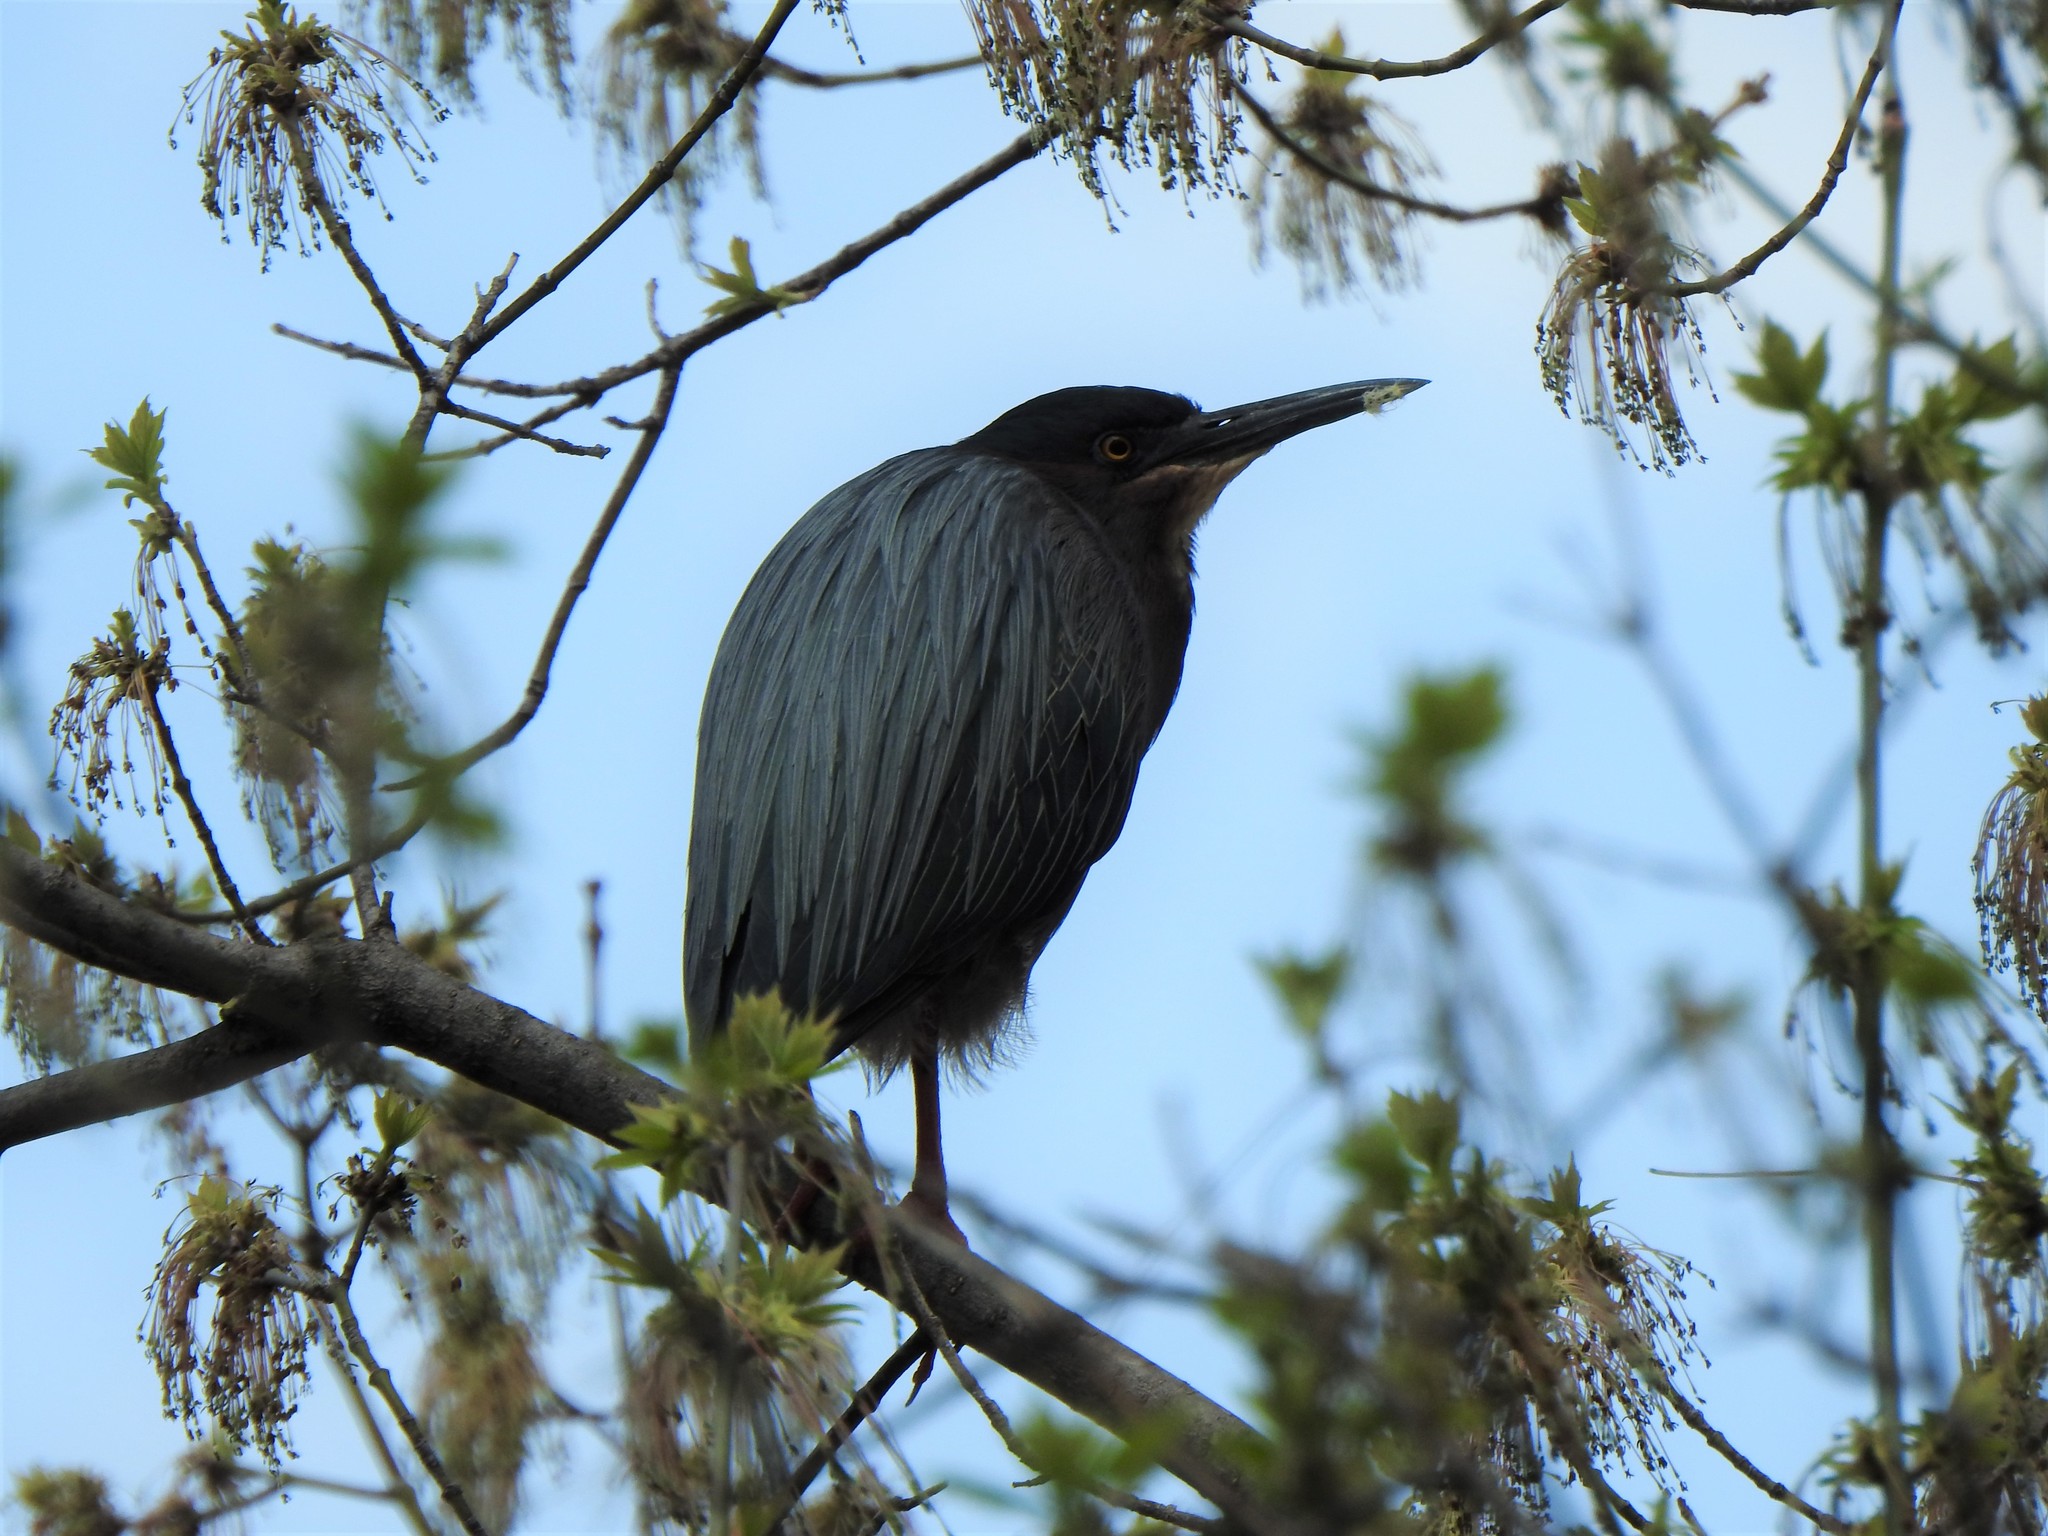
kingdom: Animalia
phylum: Chordata
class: Aves
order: Pelecaniformes
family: Ardeidae
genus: Butorides
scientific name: Butorides virescens
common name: Green heron
